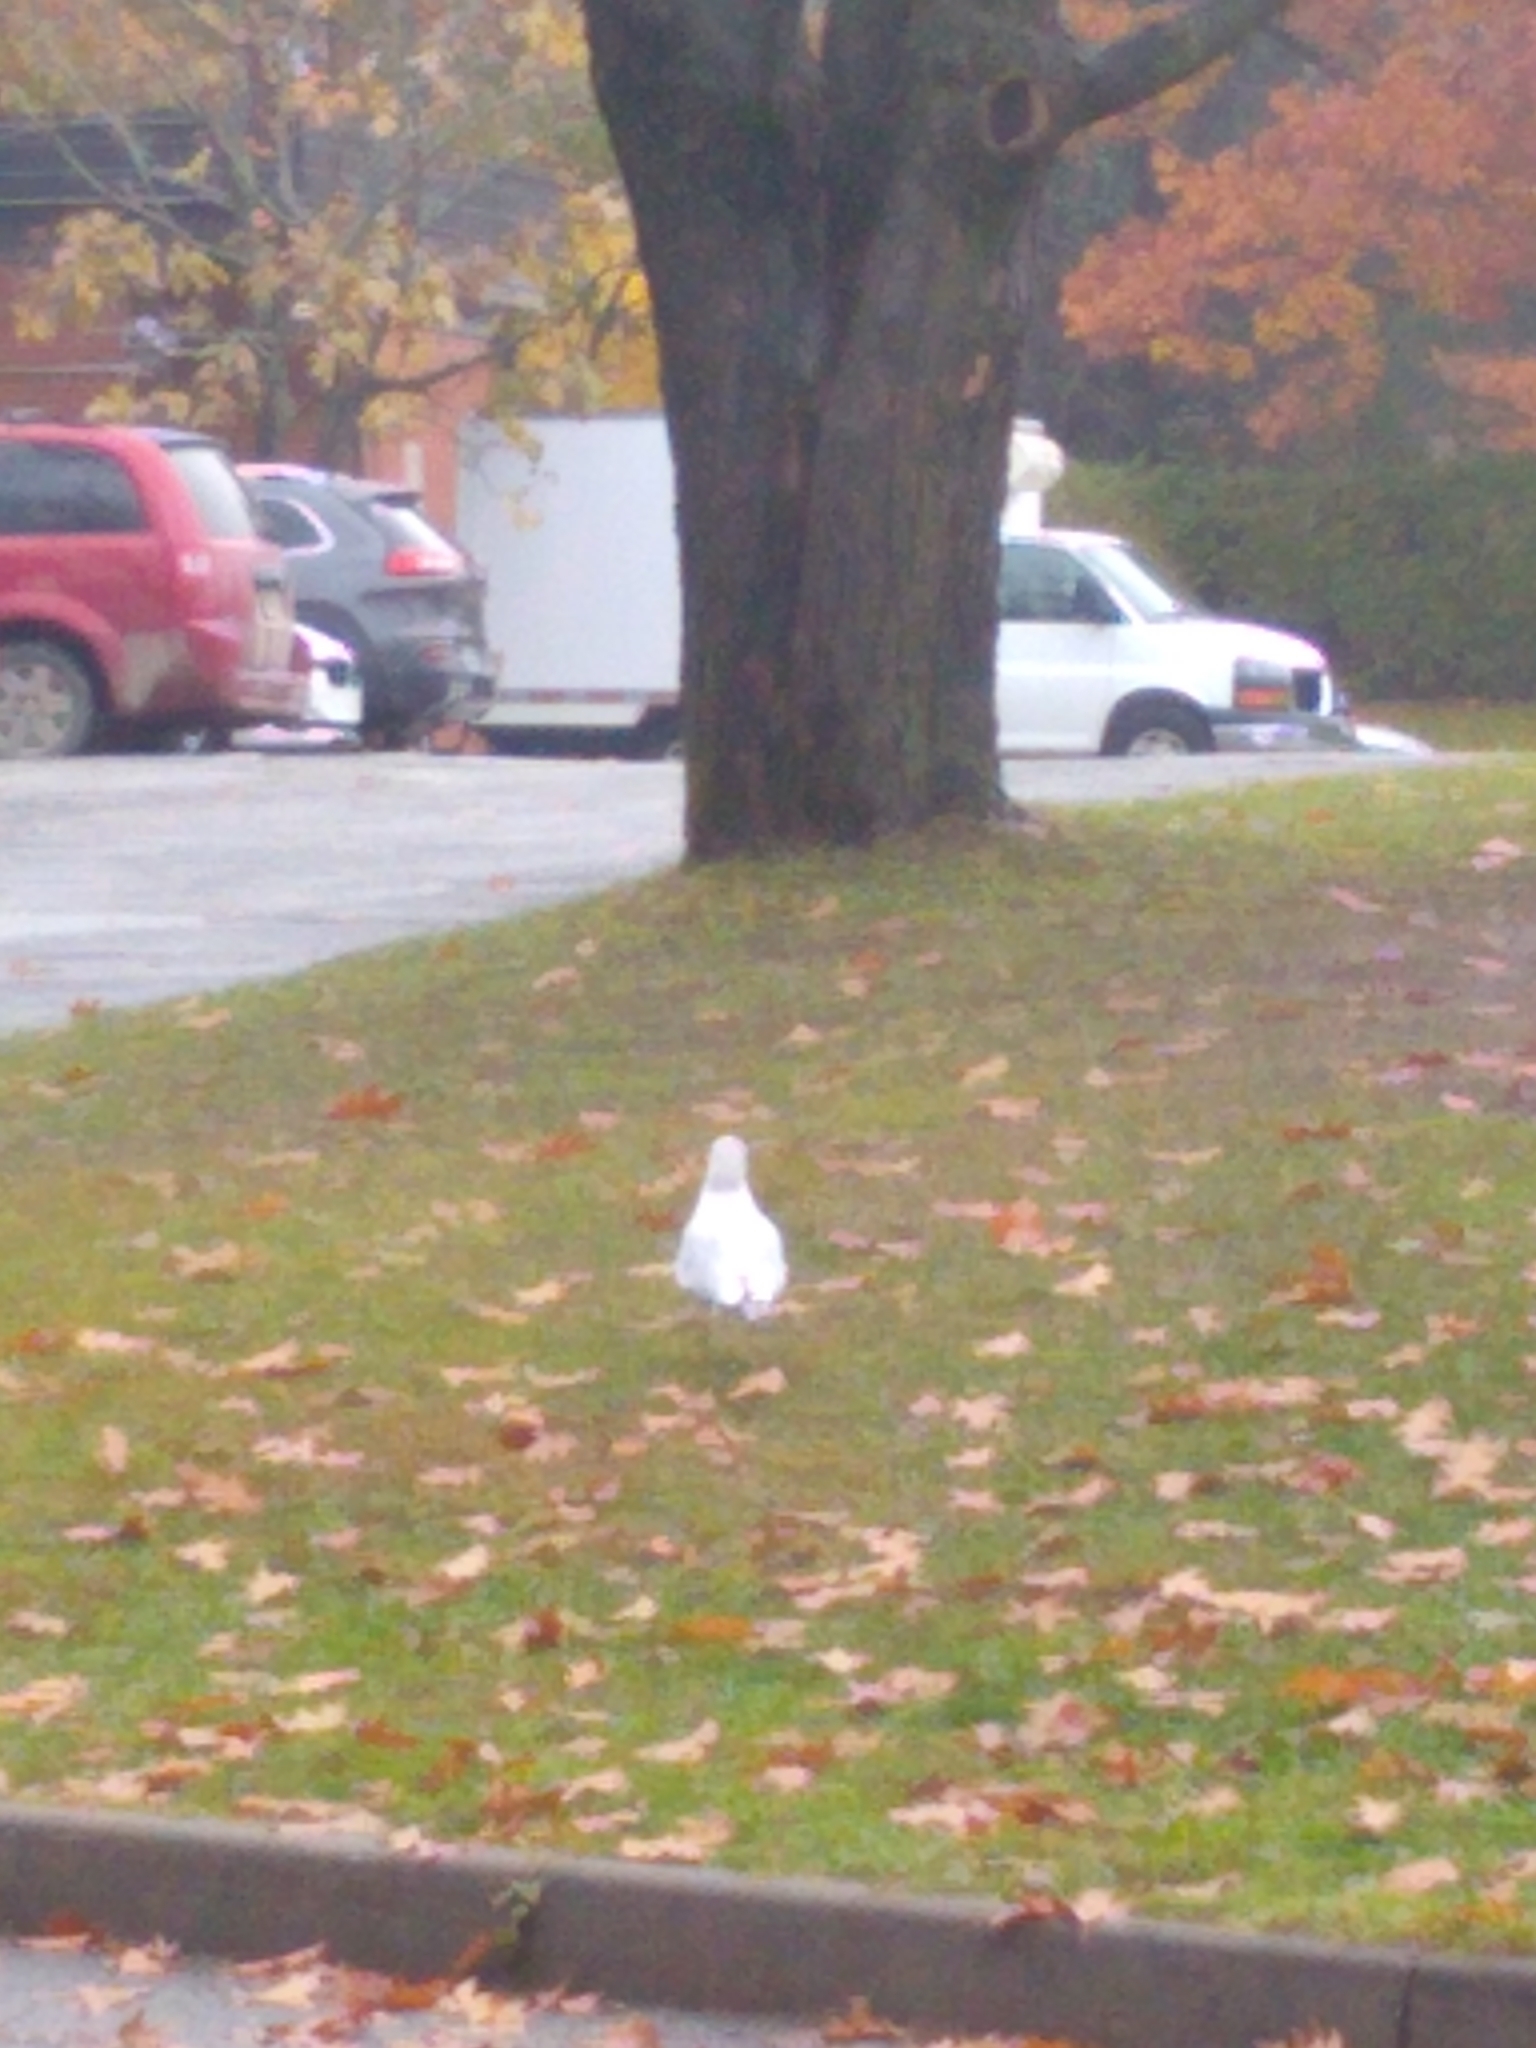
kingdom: Animalia
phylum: Chordata
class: Aves
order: Charadriiformes
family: Laridae
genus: Larus
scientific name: Larus delawarensis
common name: Ring-billed gull
